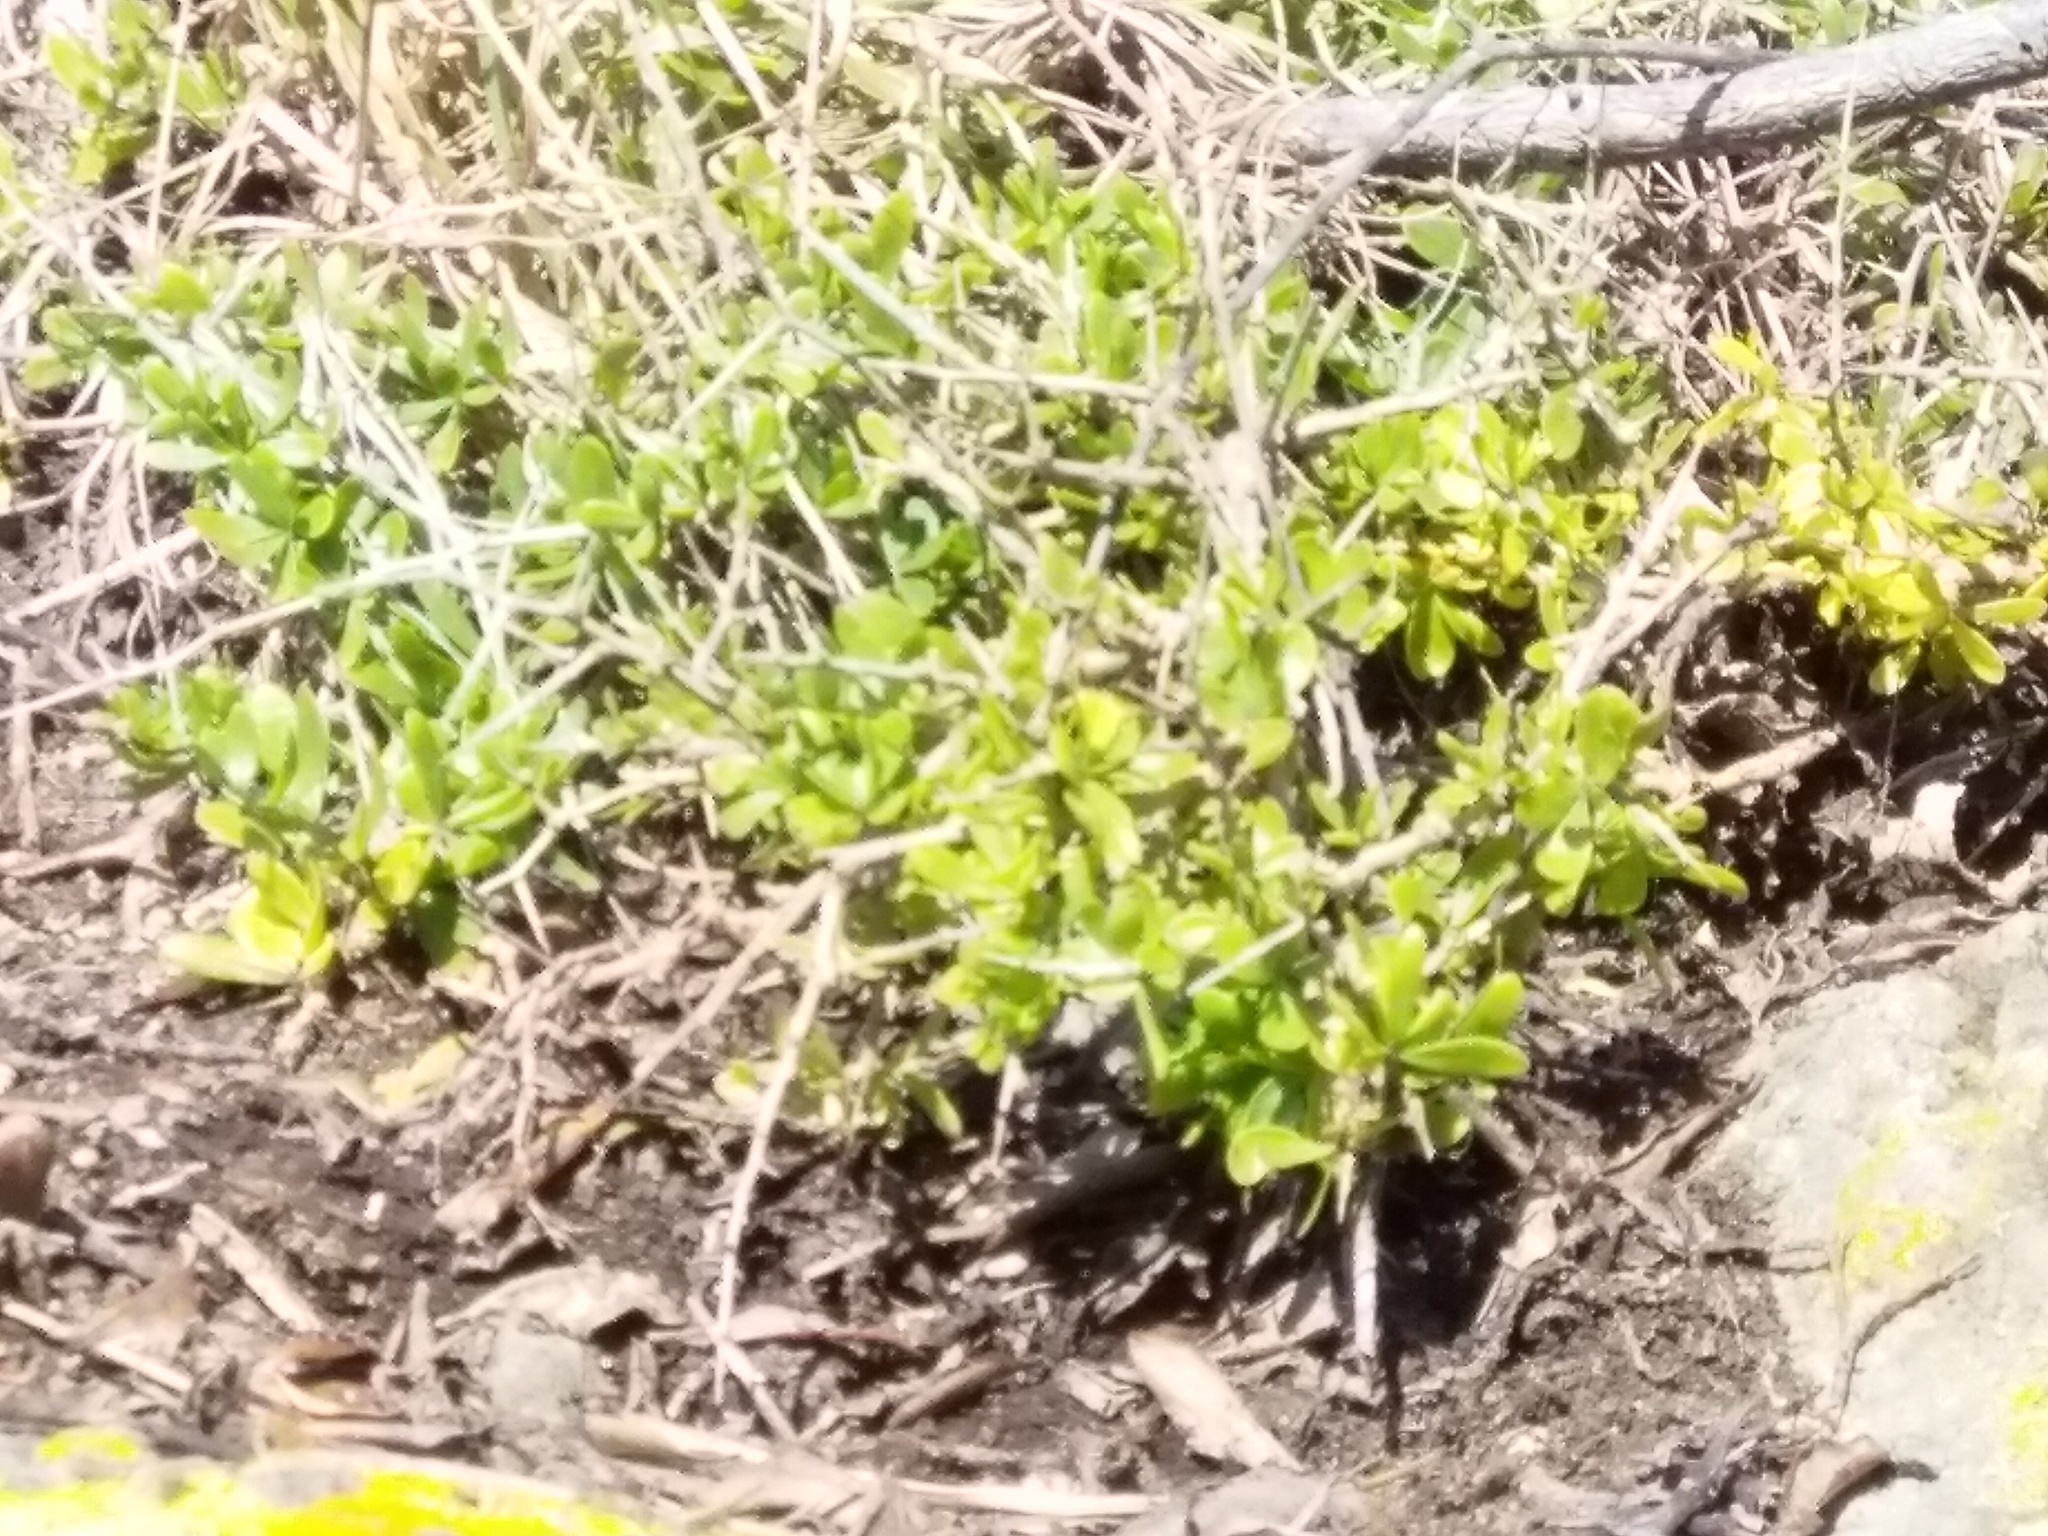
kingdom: Plantae
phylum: Tracheophyta
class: Magnoliopsida
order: Solanales
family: Solanaceae
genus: Lycium
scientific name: Lycium ferocissimum
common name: African boxthorn
